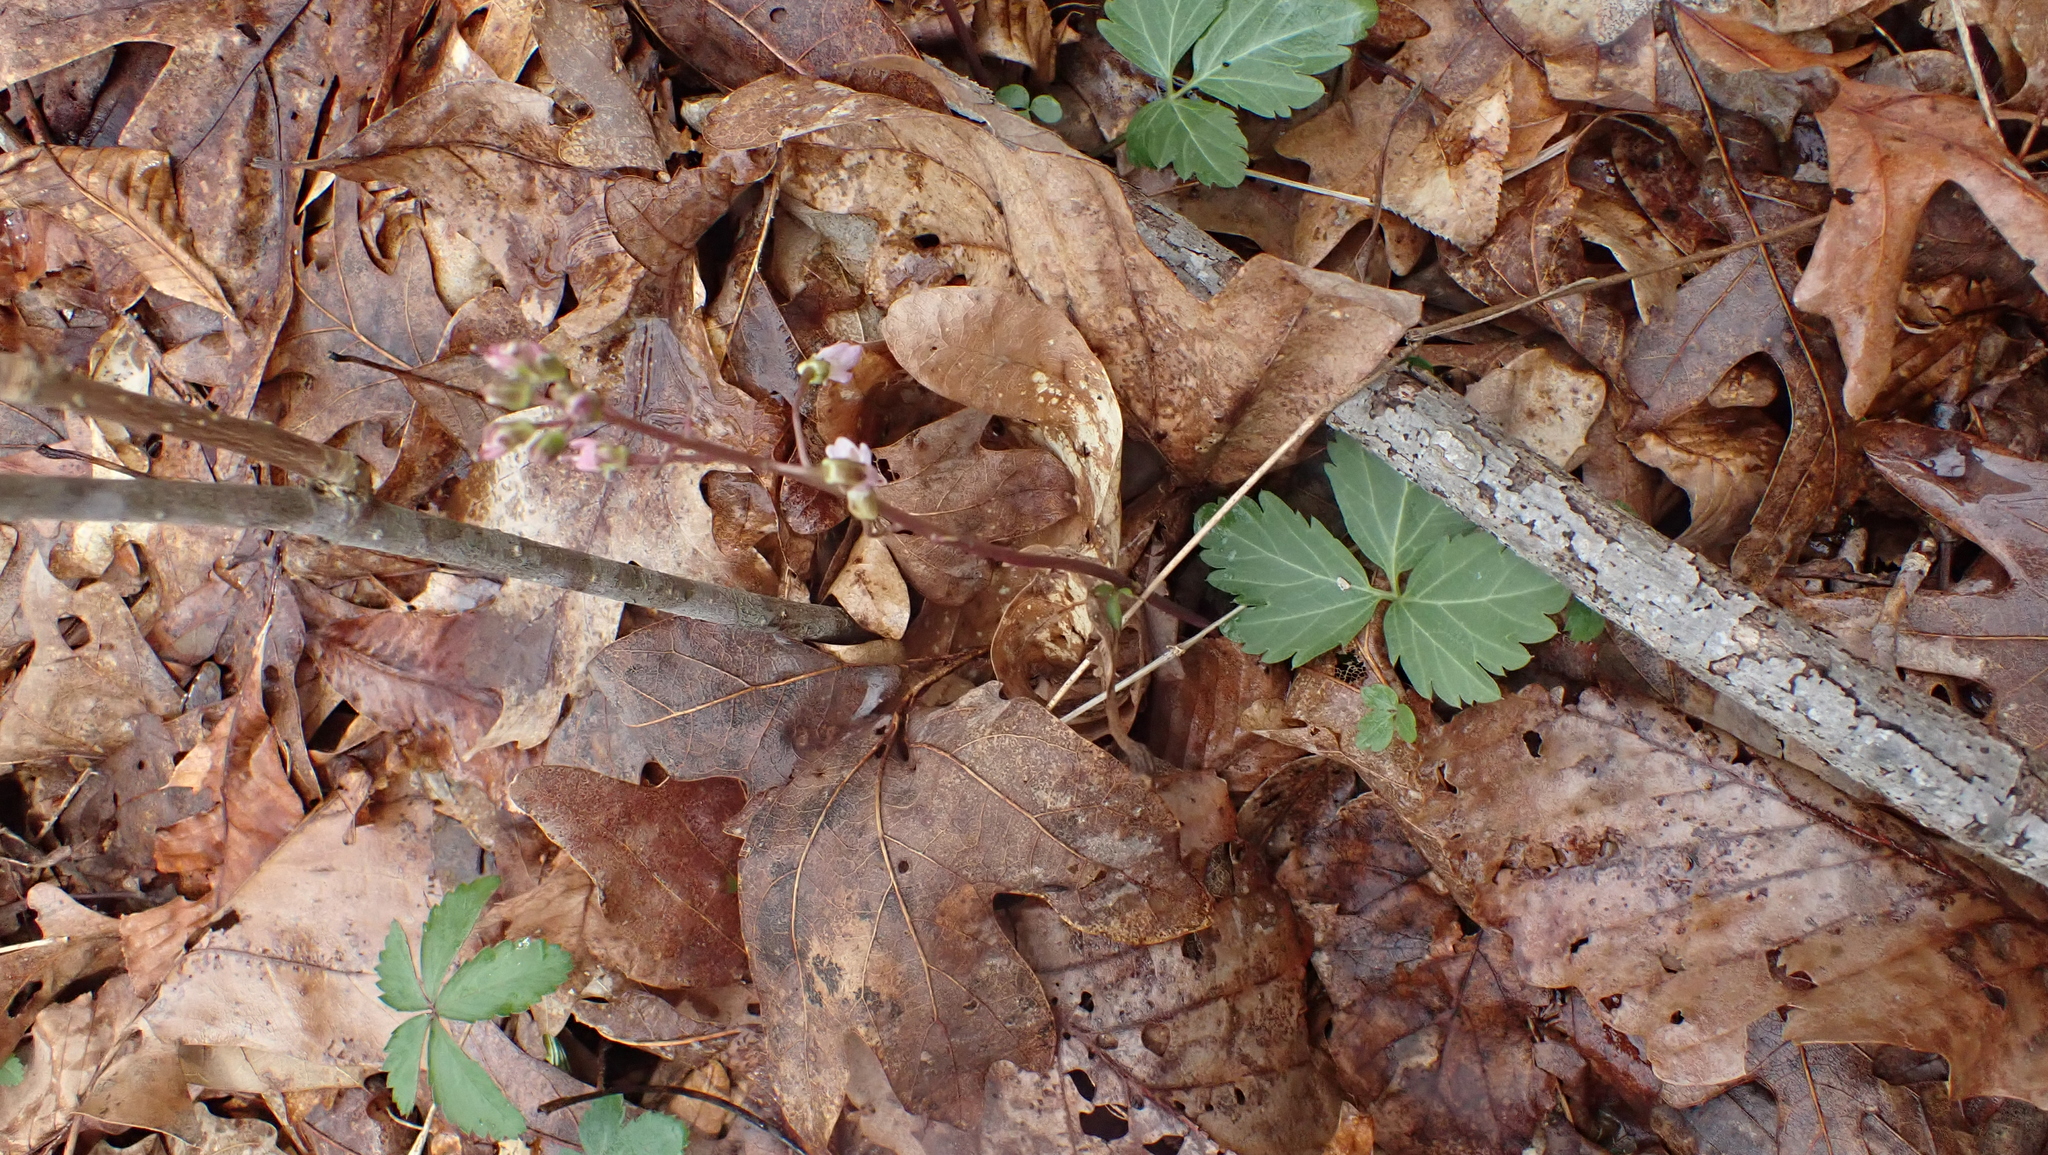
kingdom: Plantae
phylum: Tracheophyta
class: Magnoliopsida
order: Brassicales
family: Brassicaceae
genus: Cardamine
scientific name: Cardamine angustata
